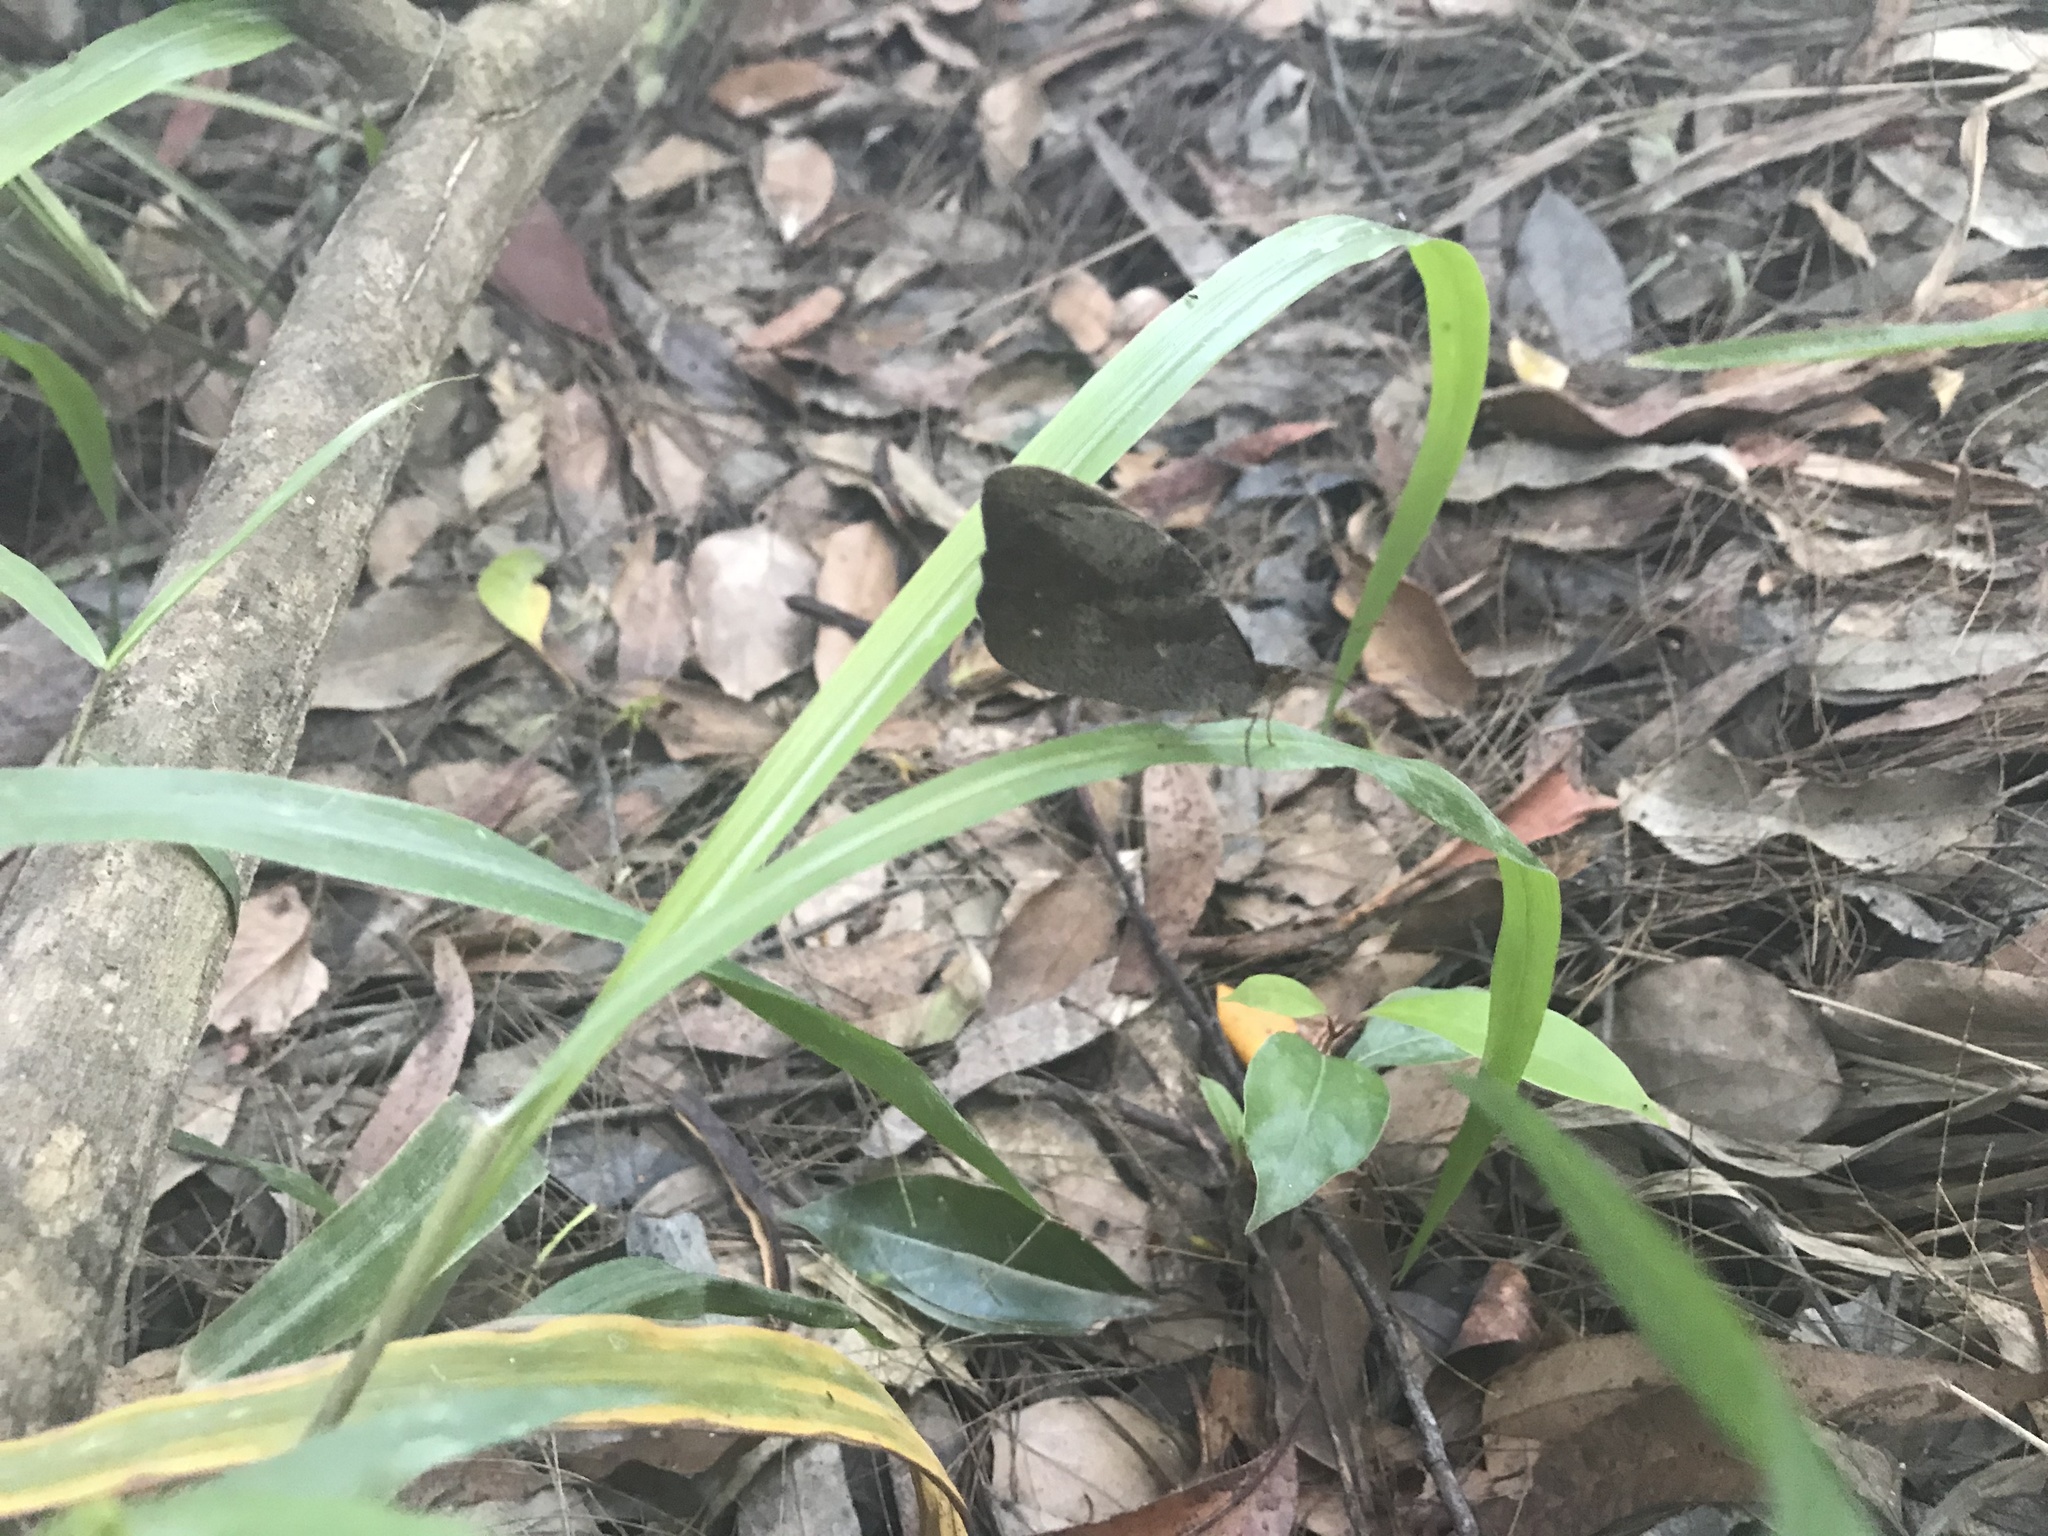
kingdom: Animalia
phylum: Arthropoda
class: Insecta
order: Lepidoptera
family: Nymphalidae
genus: Heteronympha
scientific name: Heteronympha mirifica
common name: Wonder brown
